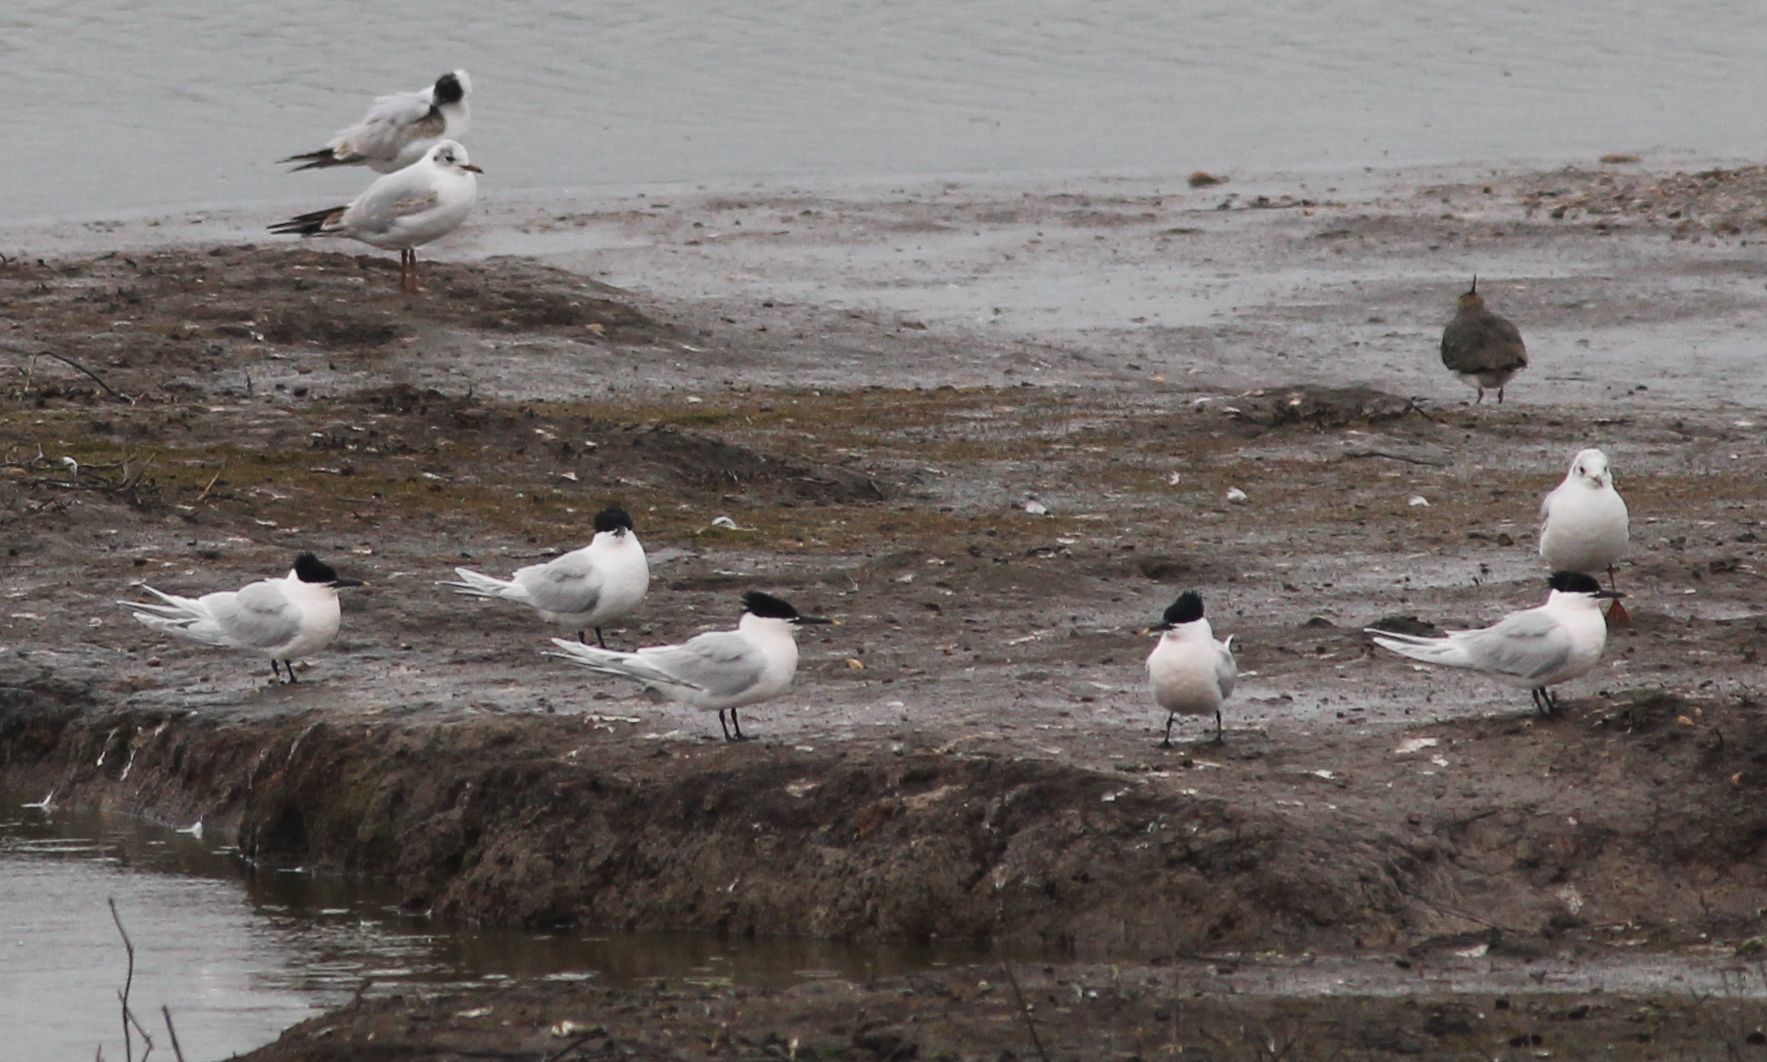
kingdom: Animalia
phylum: Chordata
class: Aves
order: Charadriiformes
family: Laridae
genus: Thalasseus
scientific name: Thalasseus sandvicensis
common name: Sandwich tern
